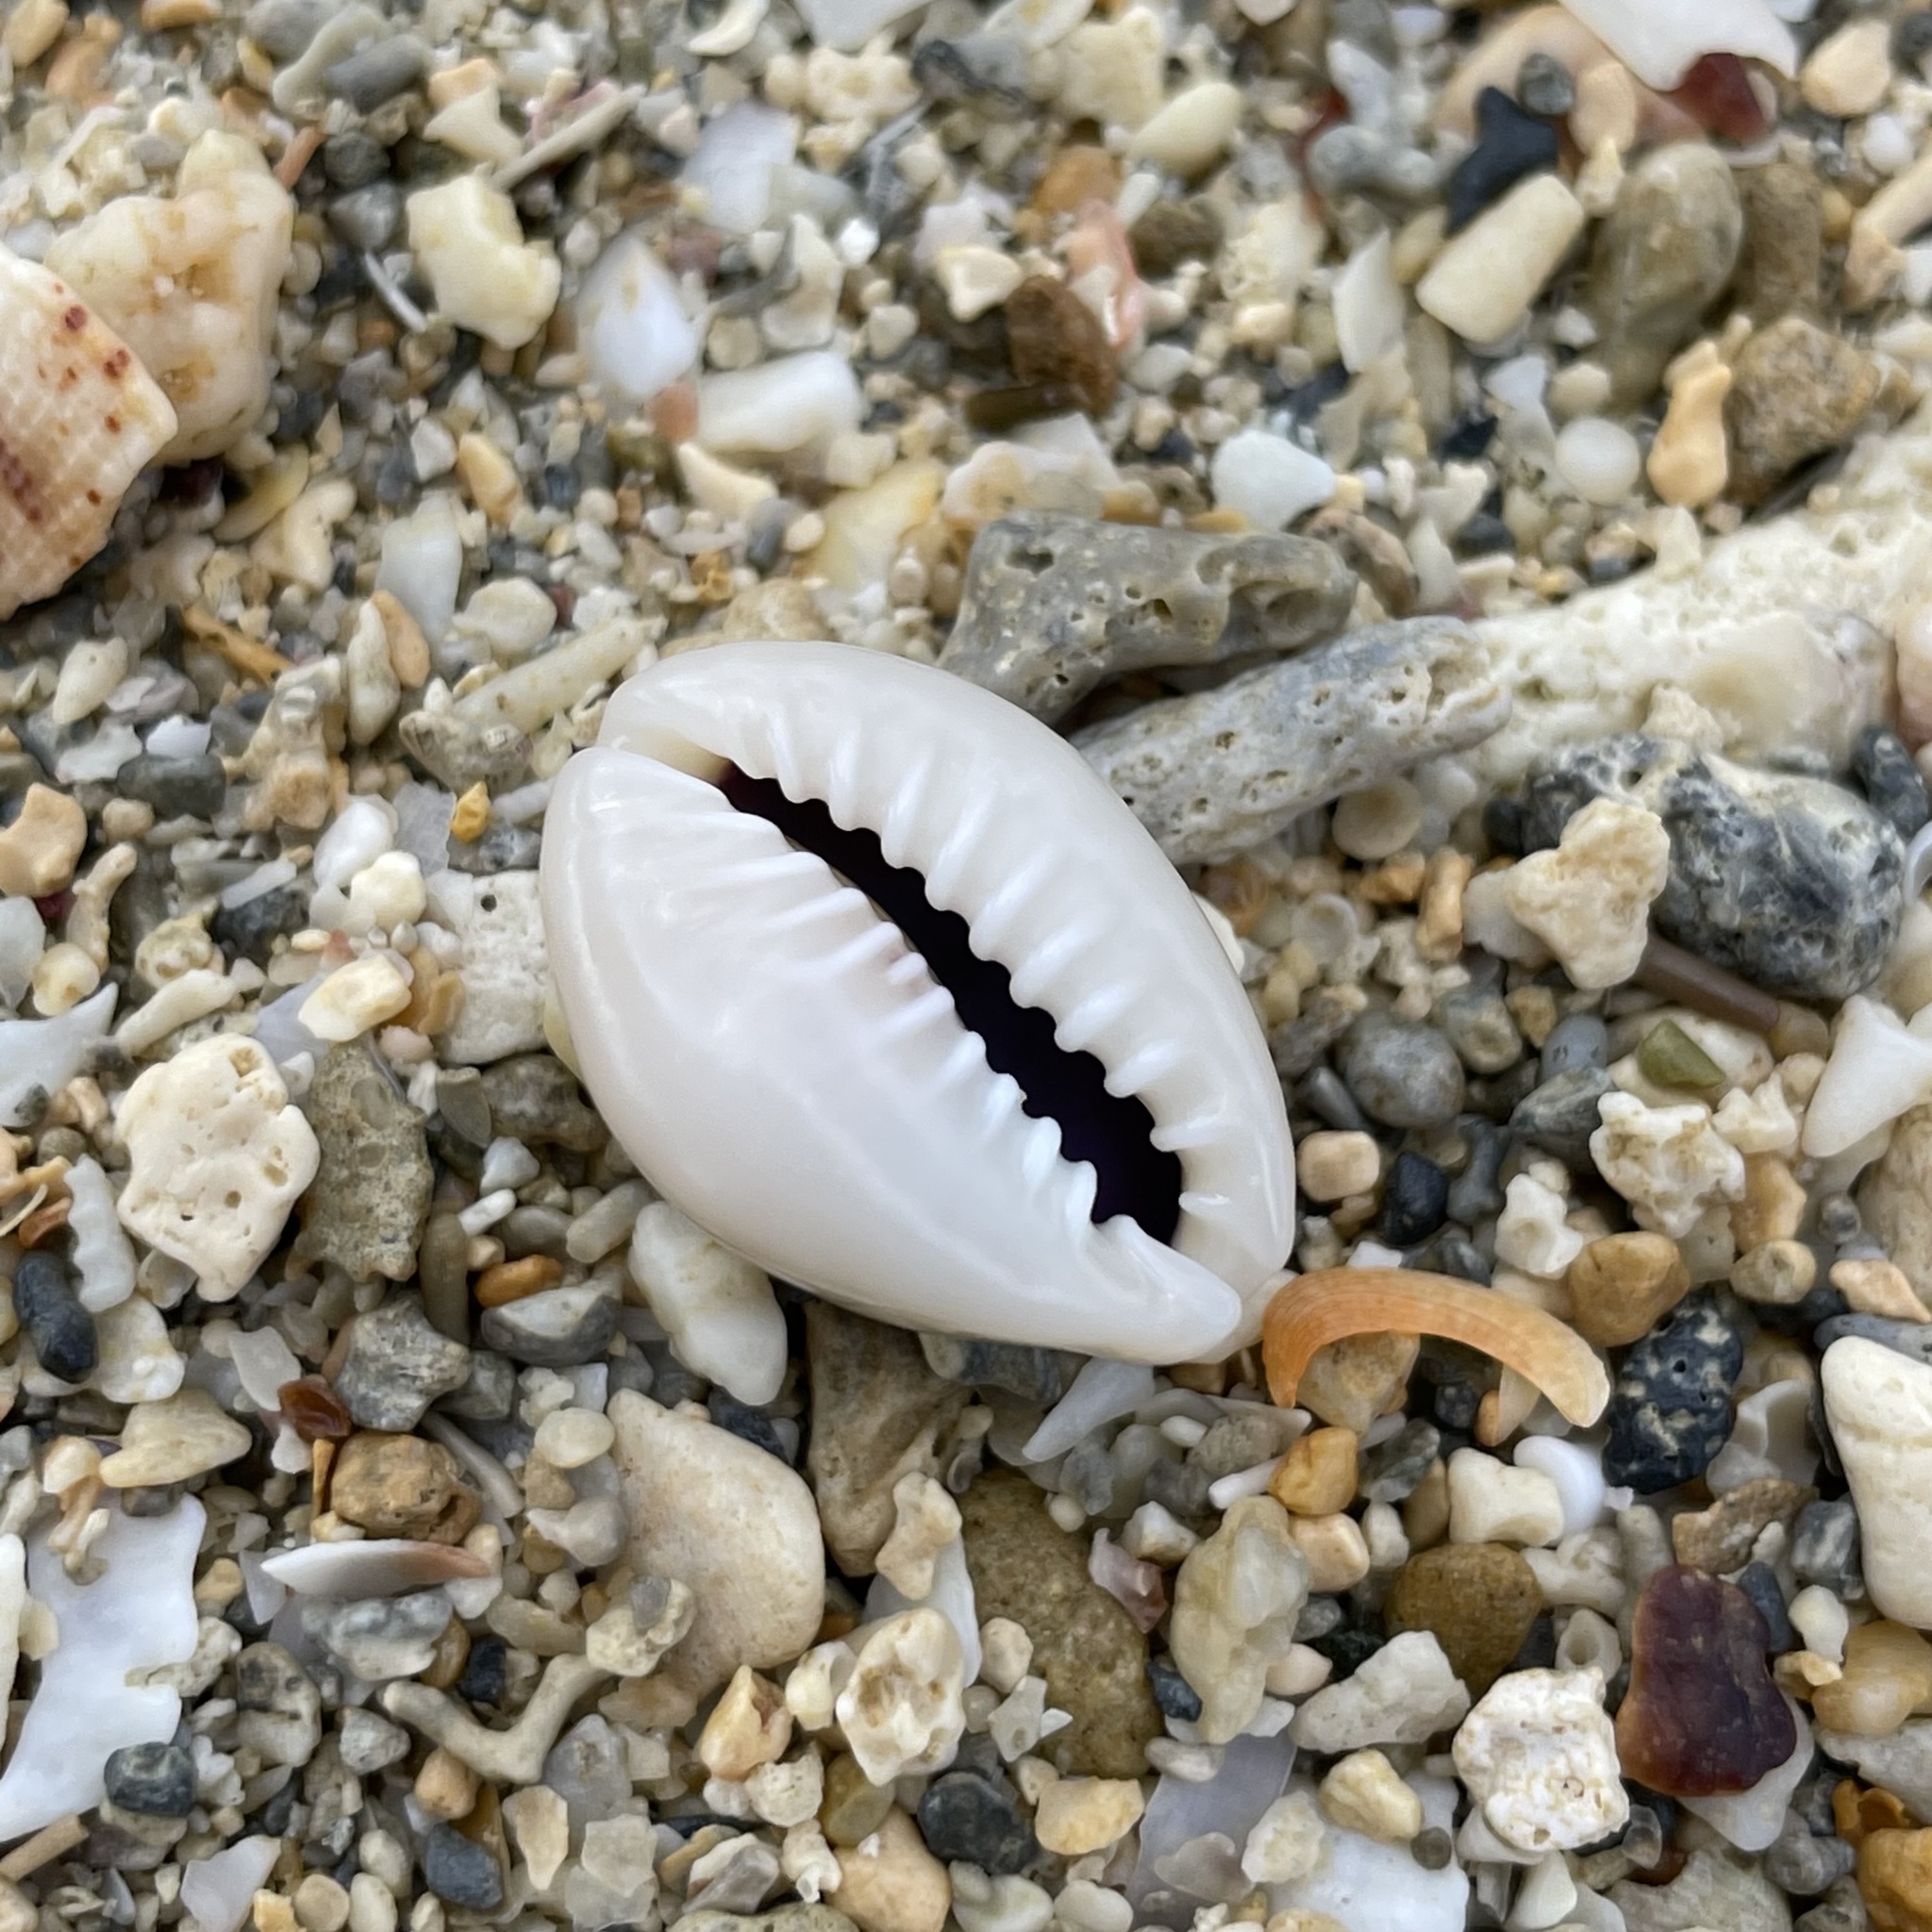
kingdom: Animalia
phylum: Mollusca
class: Gastropoda
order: Littorinimorpha
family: Cypraeidae
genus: Monetaria
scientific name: Monetaria annulus
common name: Ring cowrie
